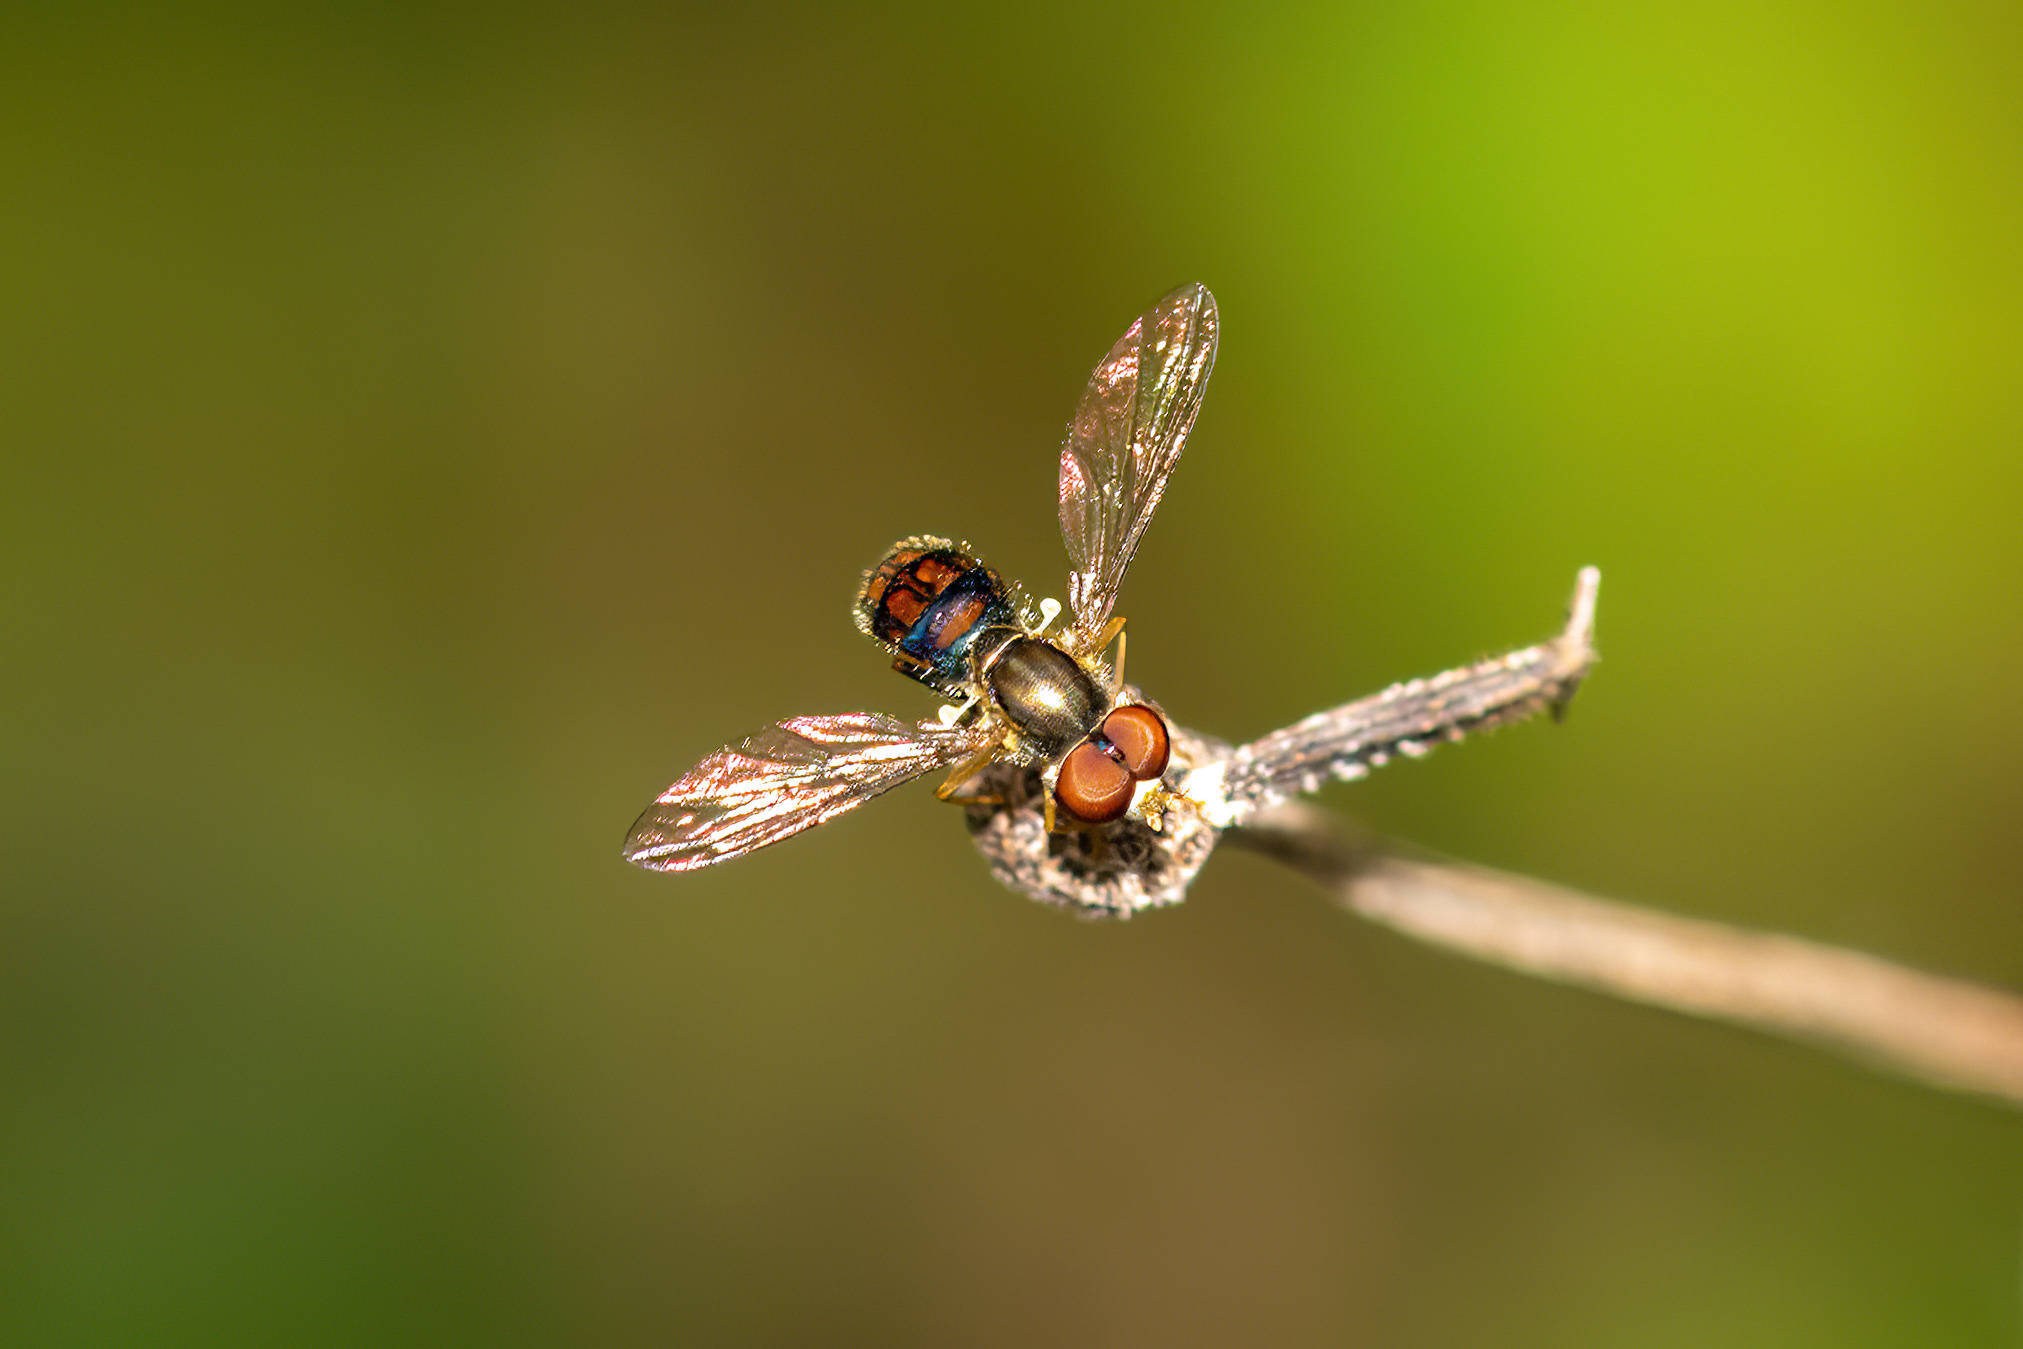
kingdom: Animalia
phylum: Arthropoda
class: Insecta
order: Diptera
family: Syrphidae
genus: Toxomerus
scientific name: Toxomerus boscii
